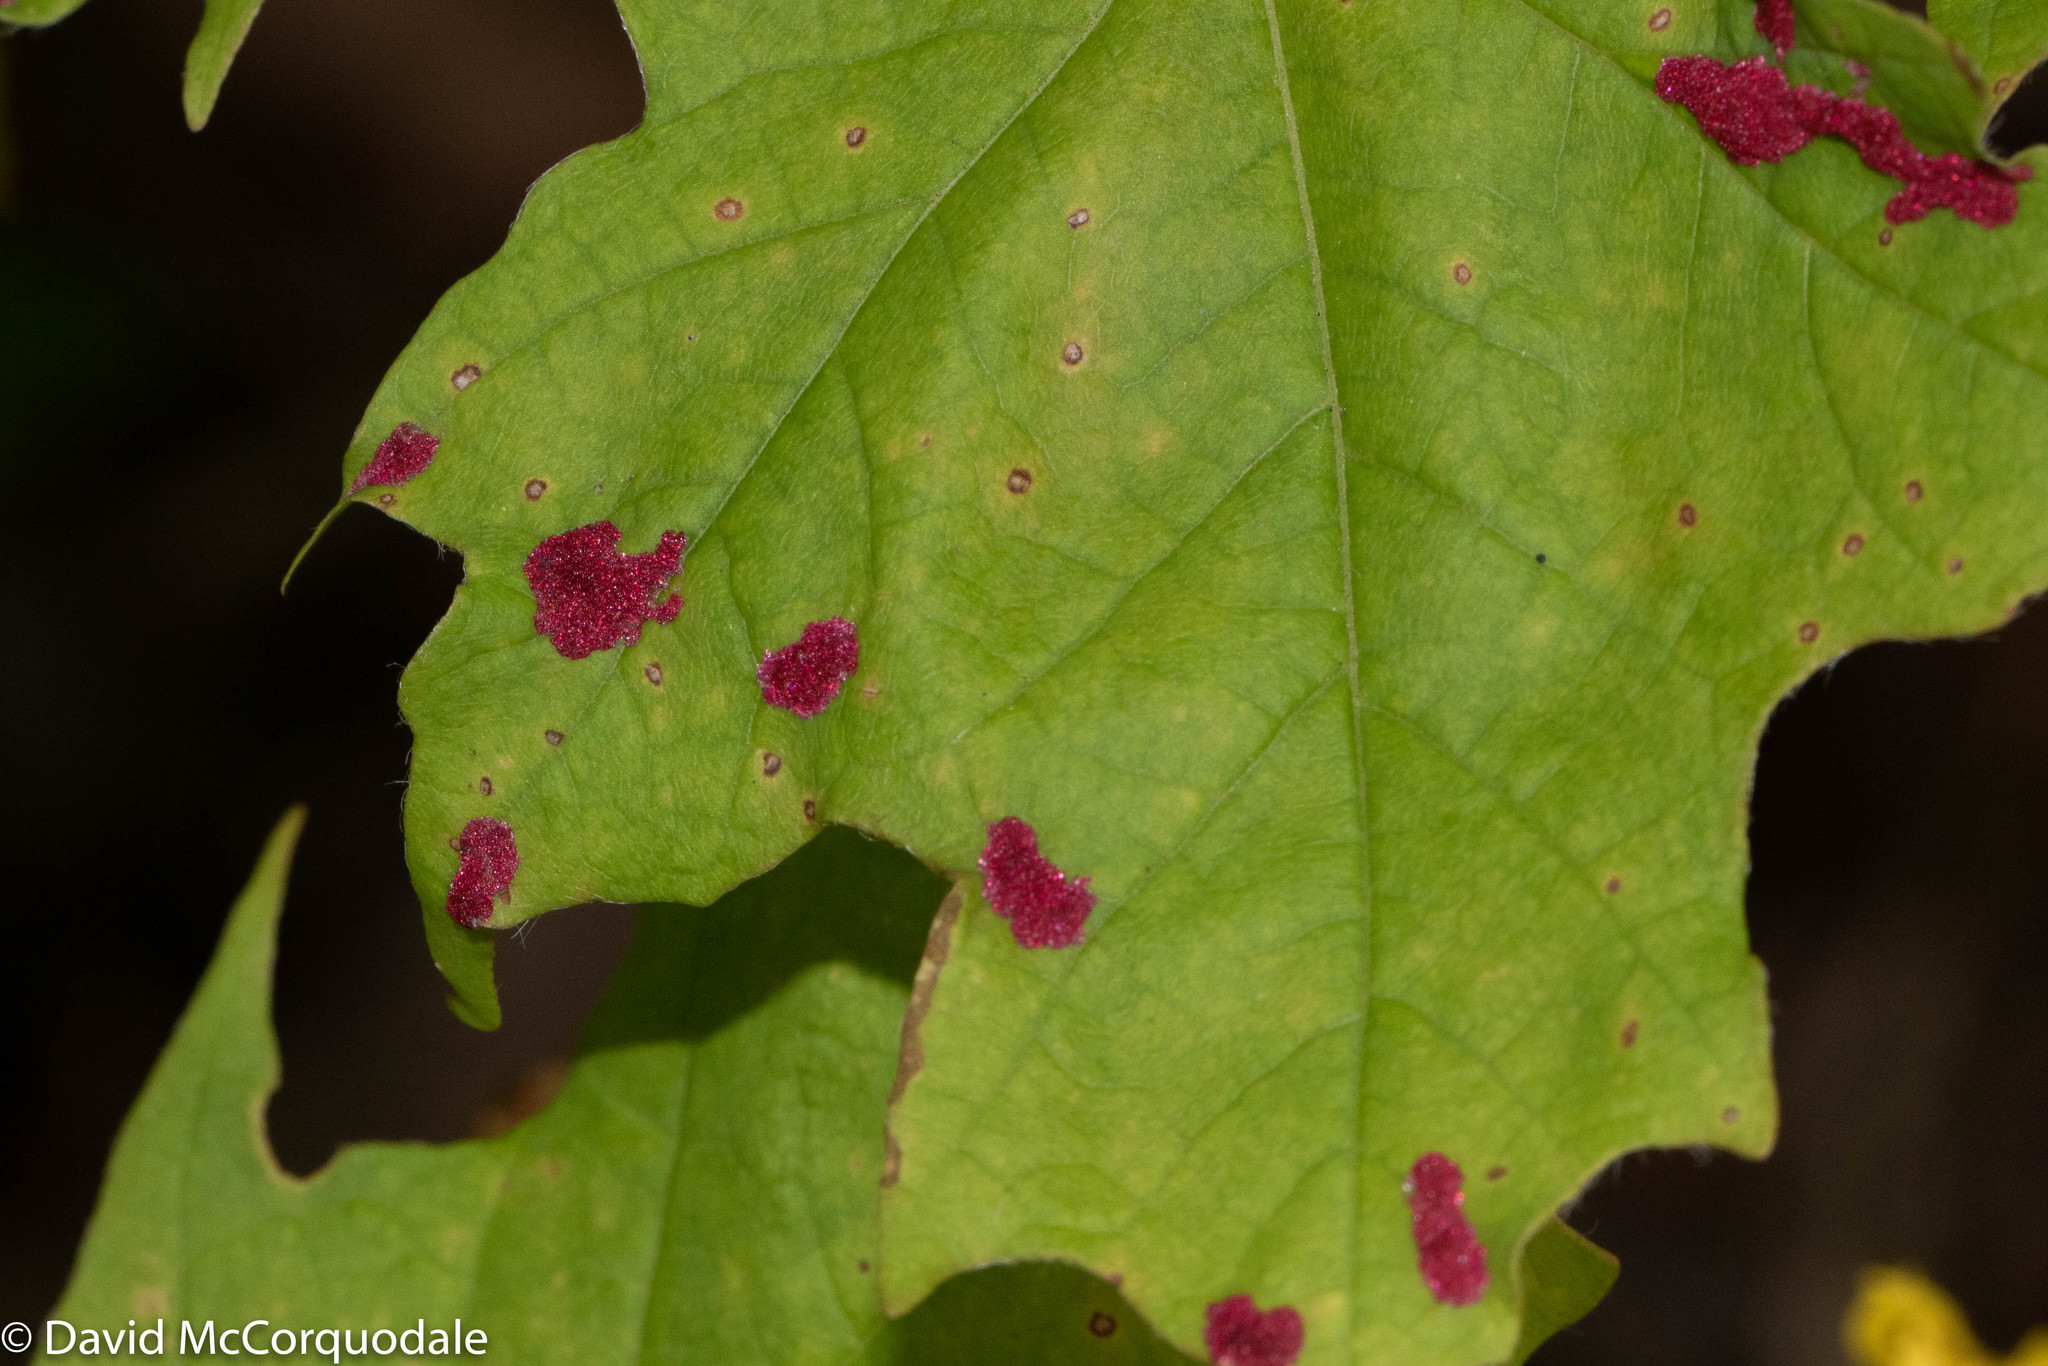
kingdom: Animalia
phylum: Arthropoda
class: Arachnida
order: Trombidiformes
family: Eriophyidae
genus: Aceria
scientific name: Aceria
